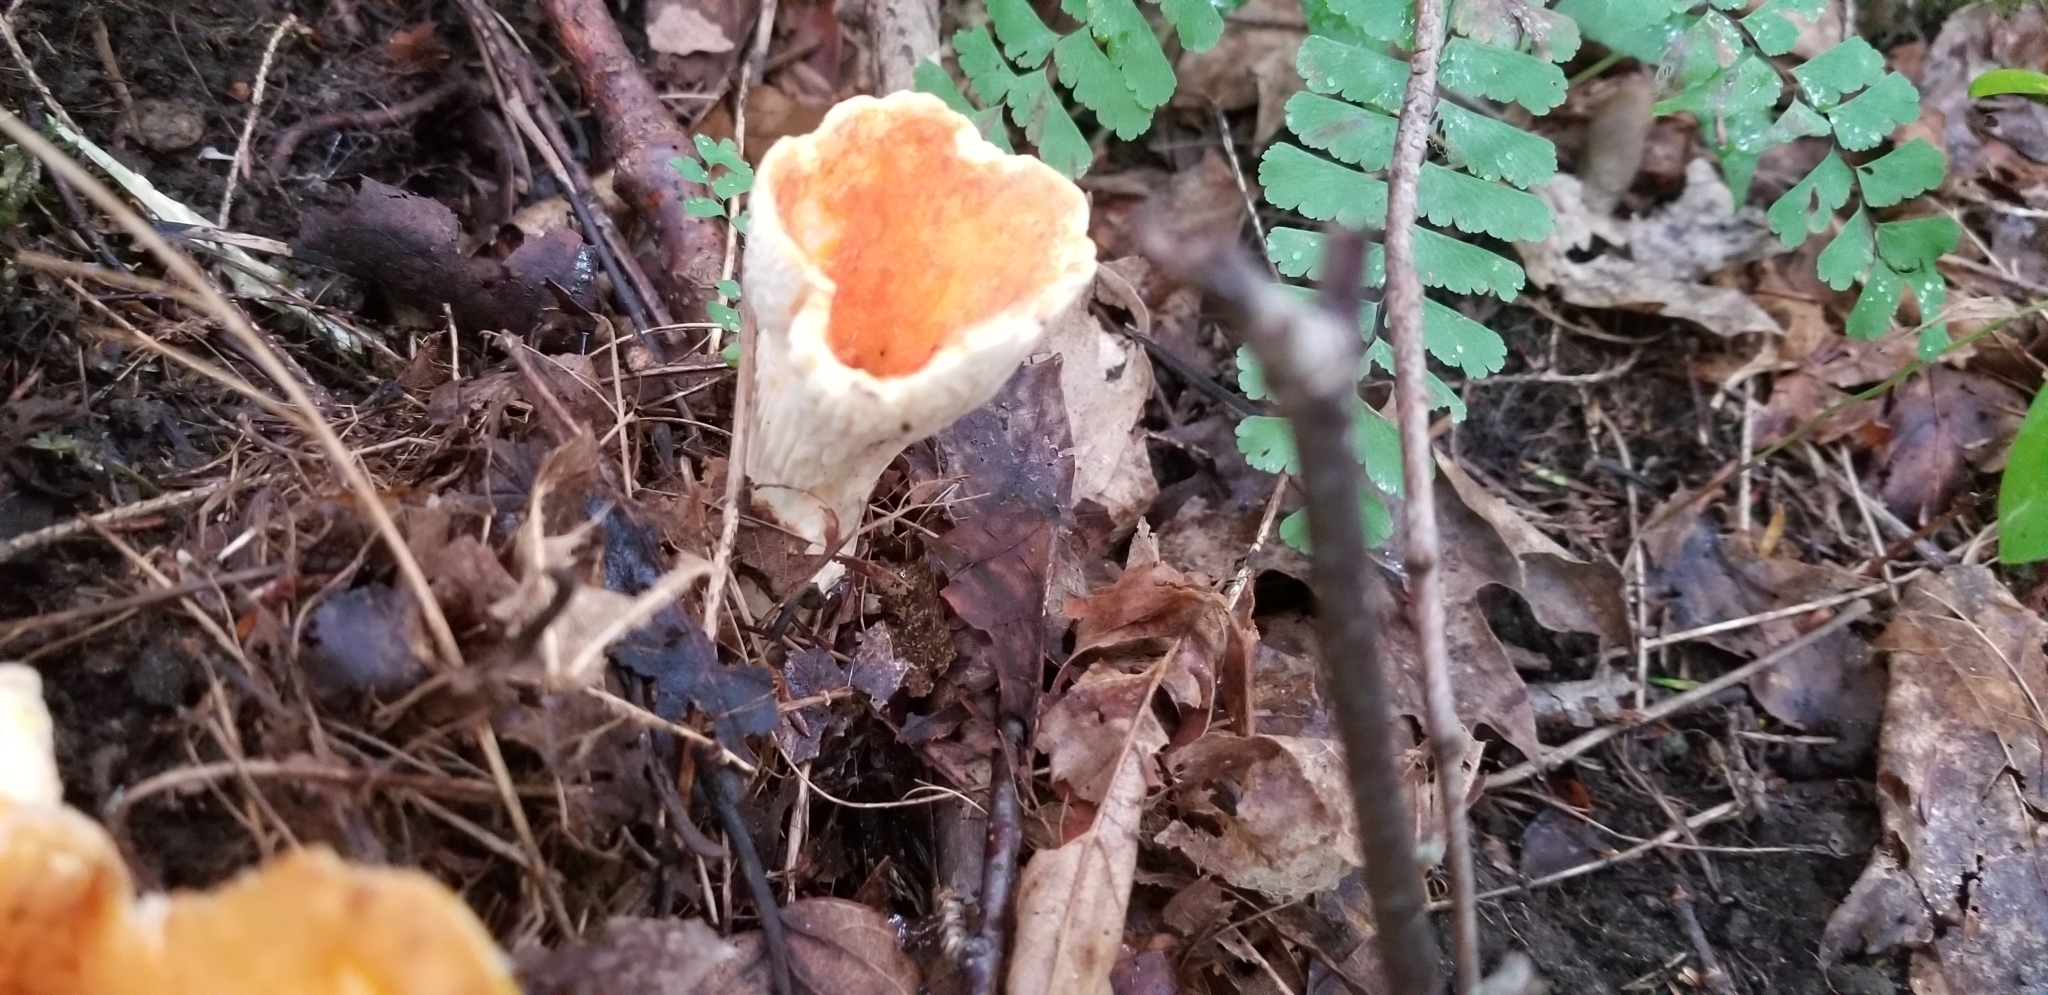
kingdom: Fungi
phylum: Basidiomycota
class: Agaricomycetes
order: Gomphales
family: Gomphaceae
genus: Turbinellus
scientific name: Turbinellus floccosus
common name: Scaly chanterelle
